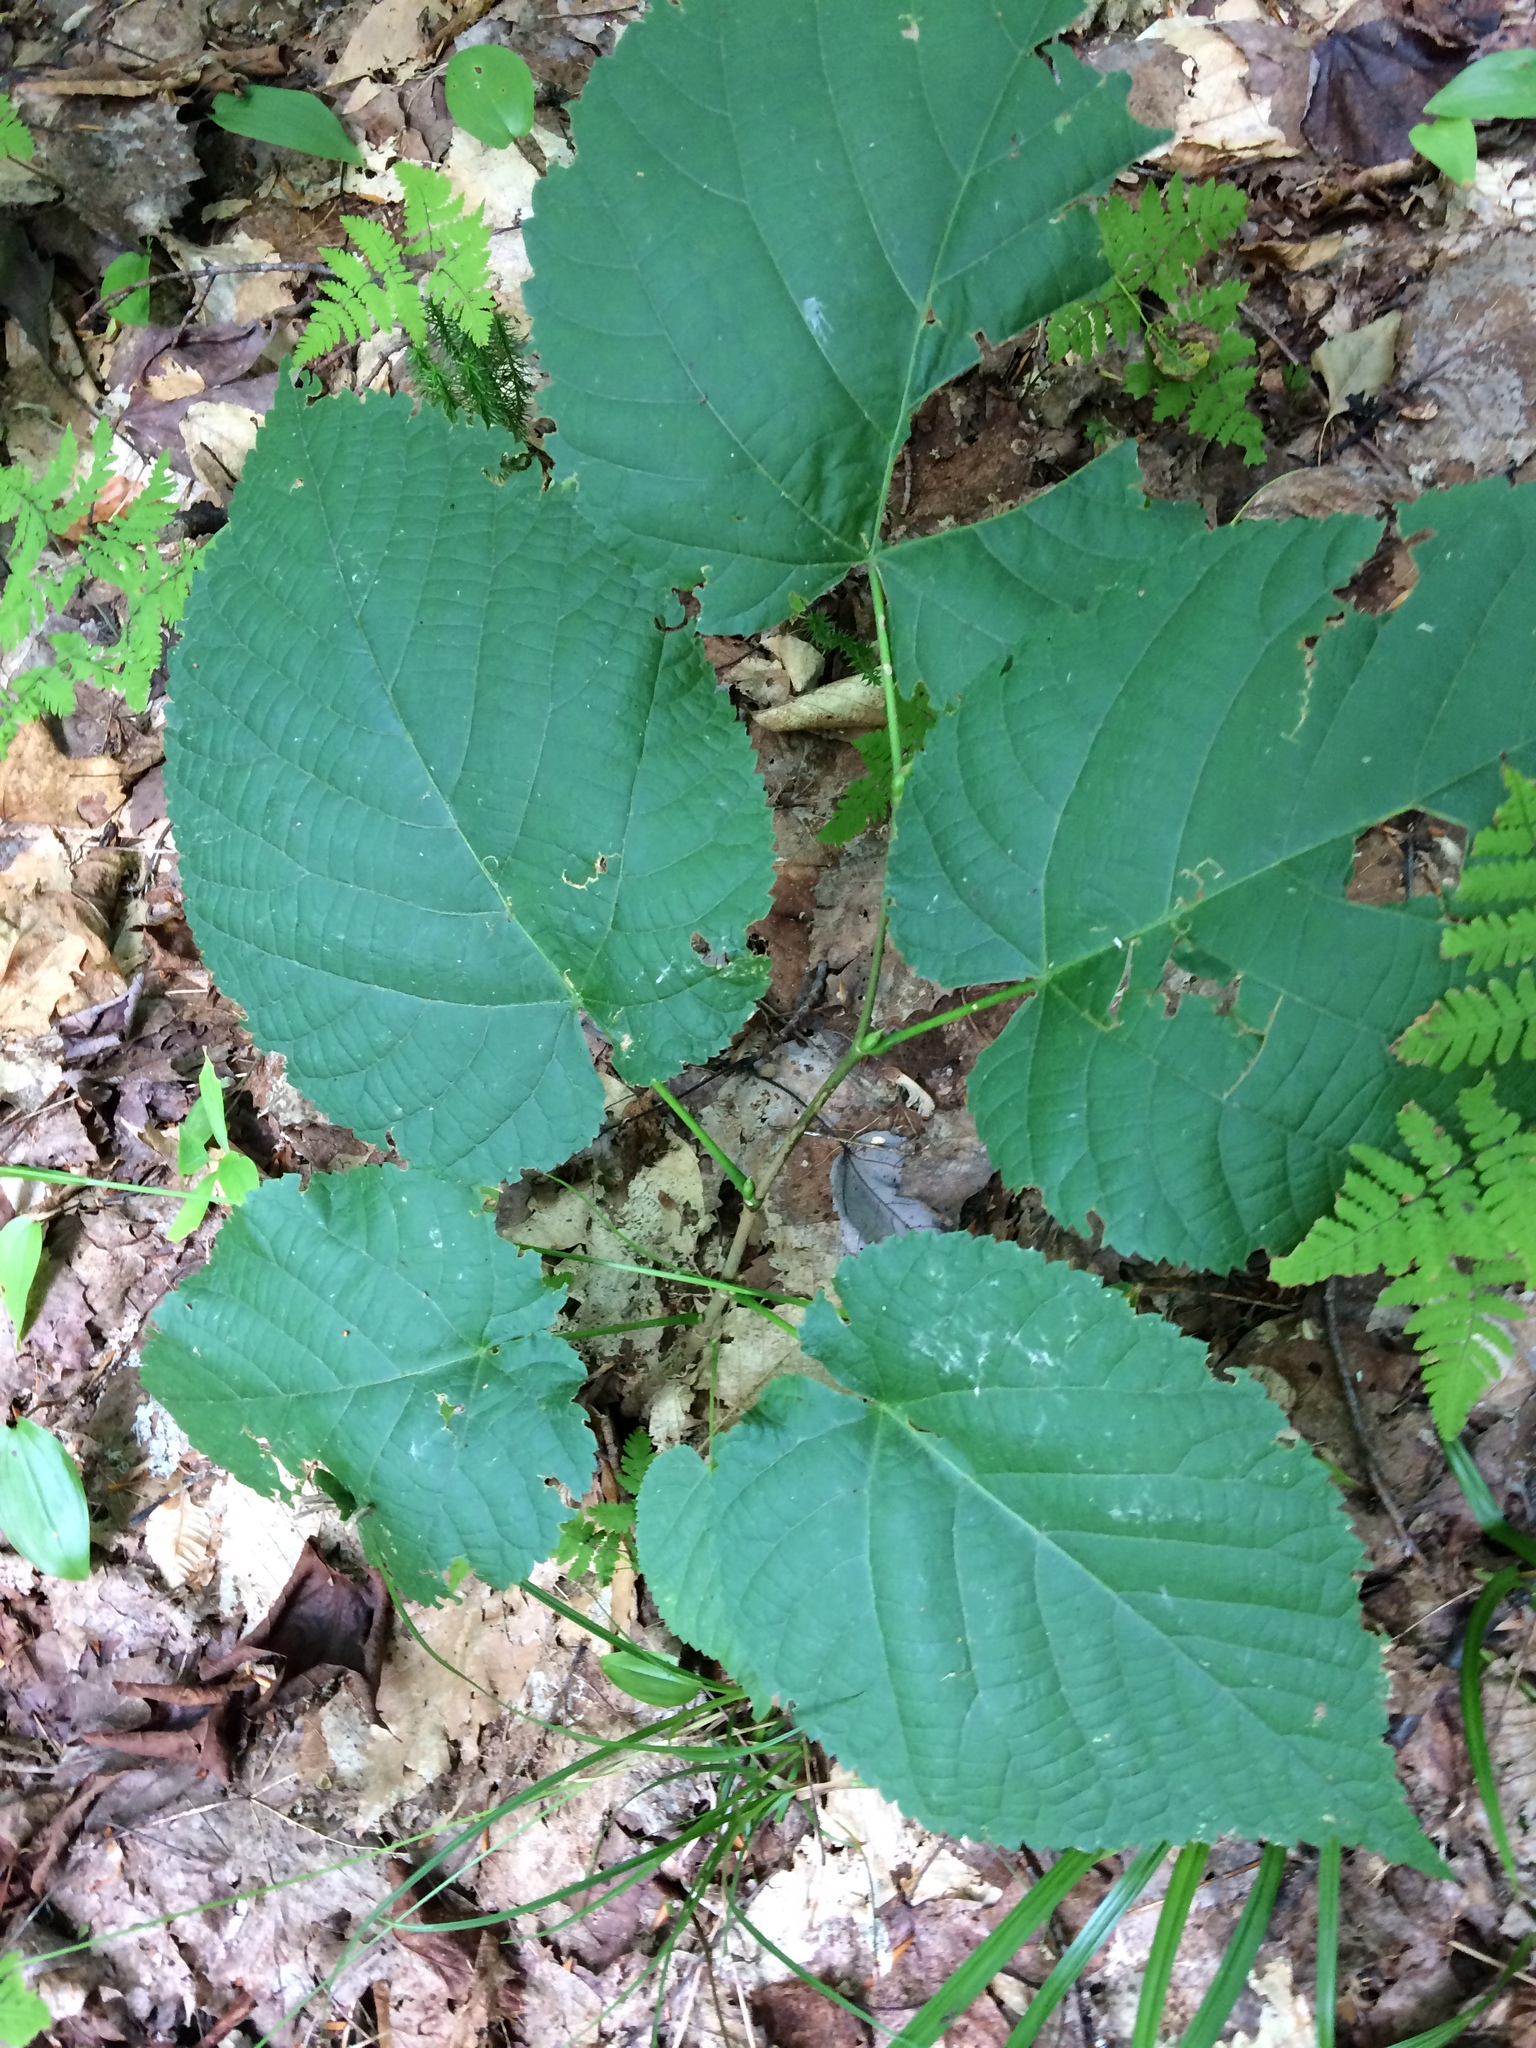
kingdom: Plantae
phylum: Tracheophyta
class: Magnoliopsida
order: Malvales
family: Malvaceae
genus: Tilia
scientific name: Tilia americana
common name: Basswood
